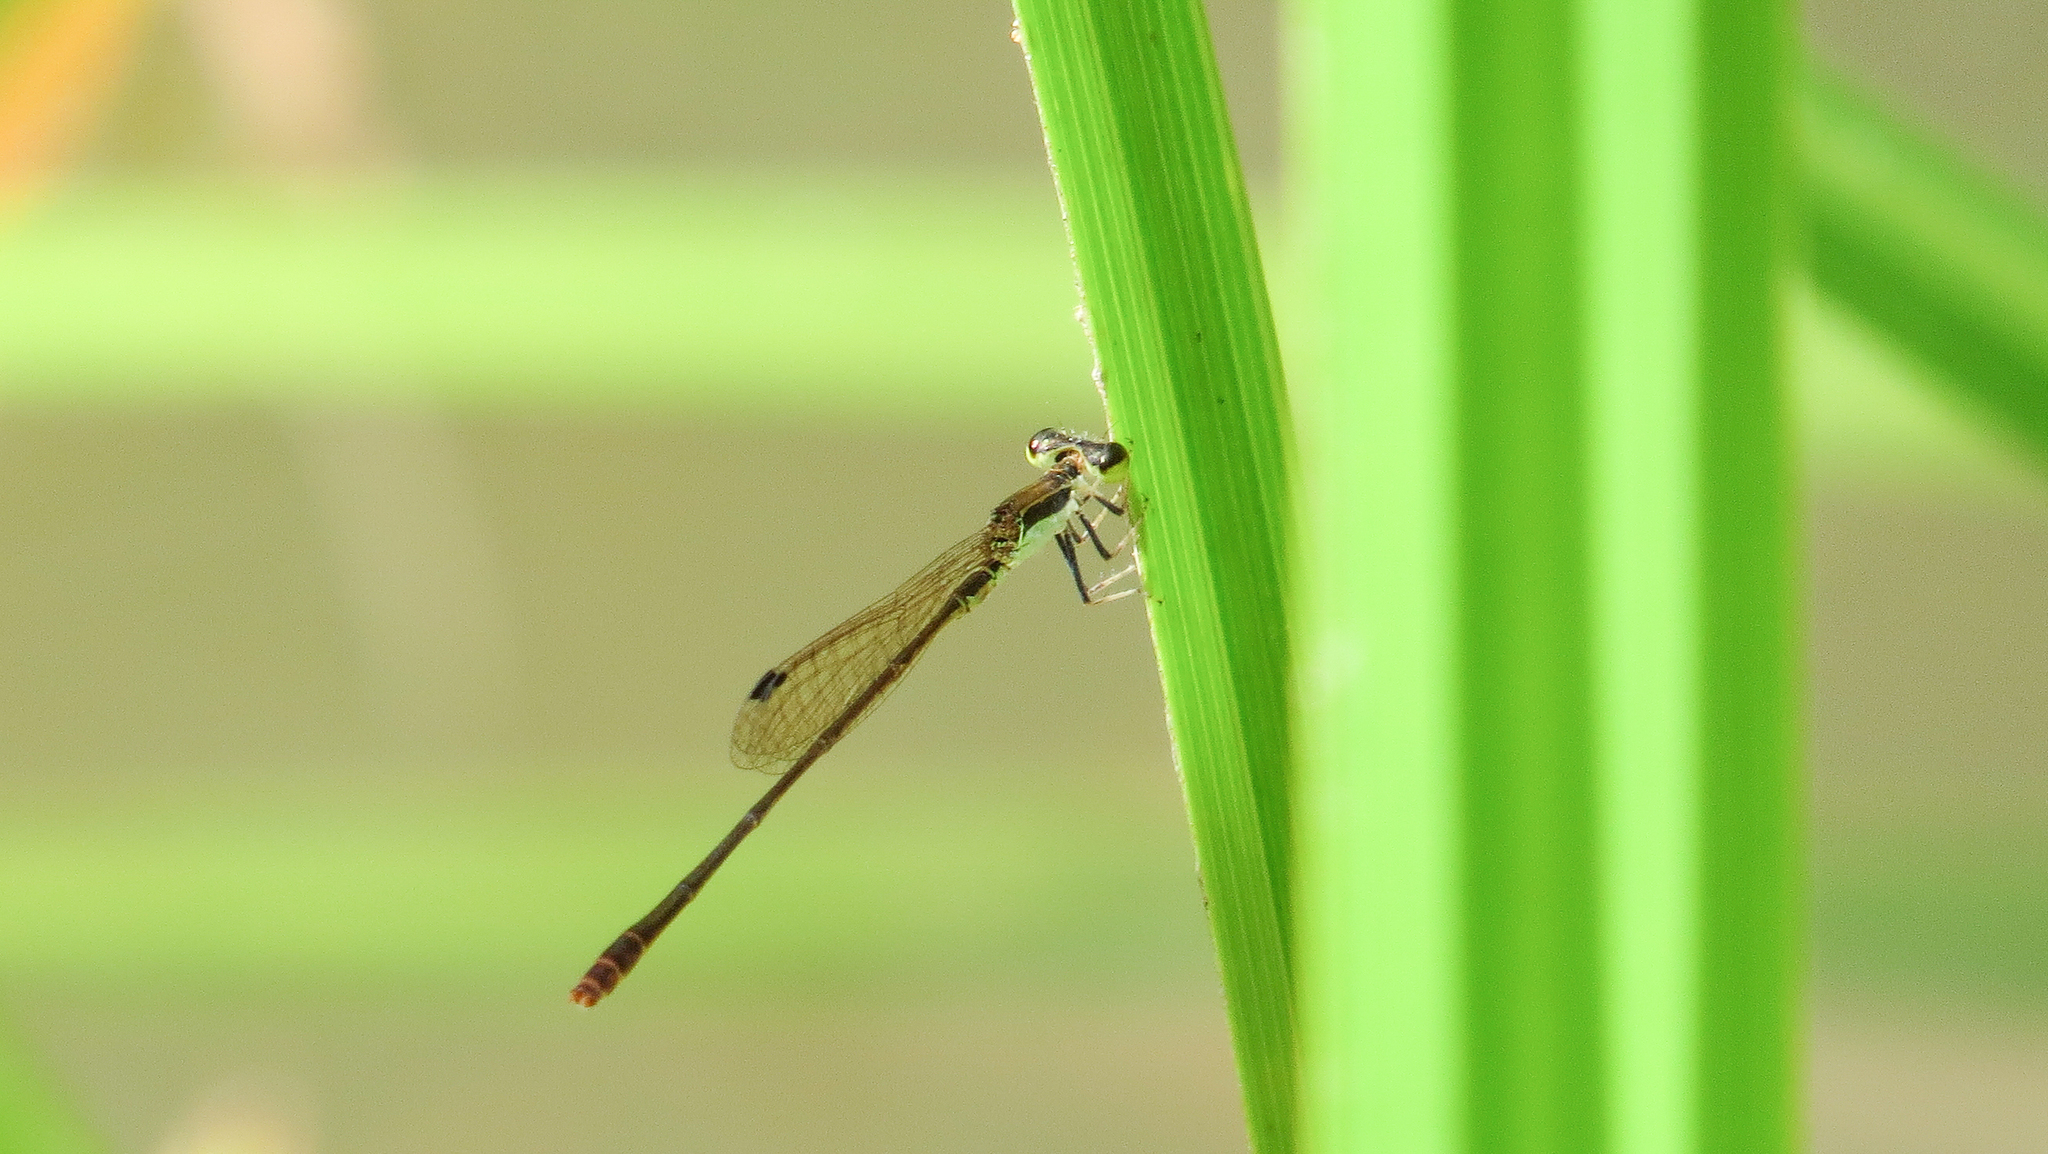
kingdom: Animalia
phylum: Arthropoda
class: Insecta
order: Odonata
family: Coenagrionidae
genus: Agriocnemis
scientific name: Agriocnemis pygmaea
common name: Pygmy wisp
